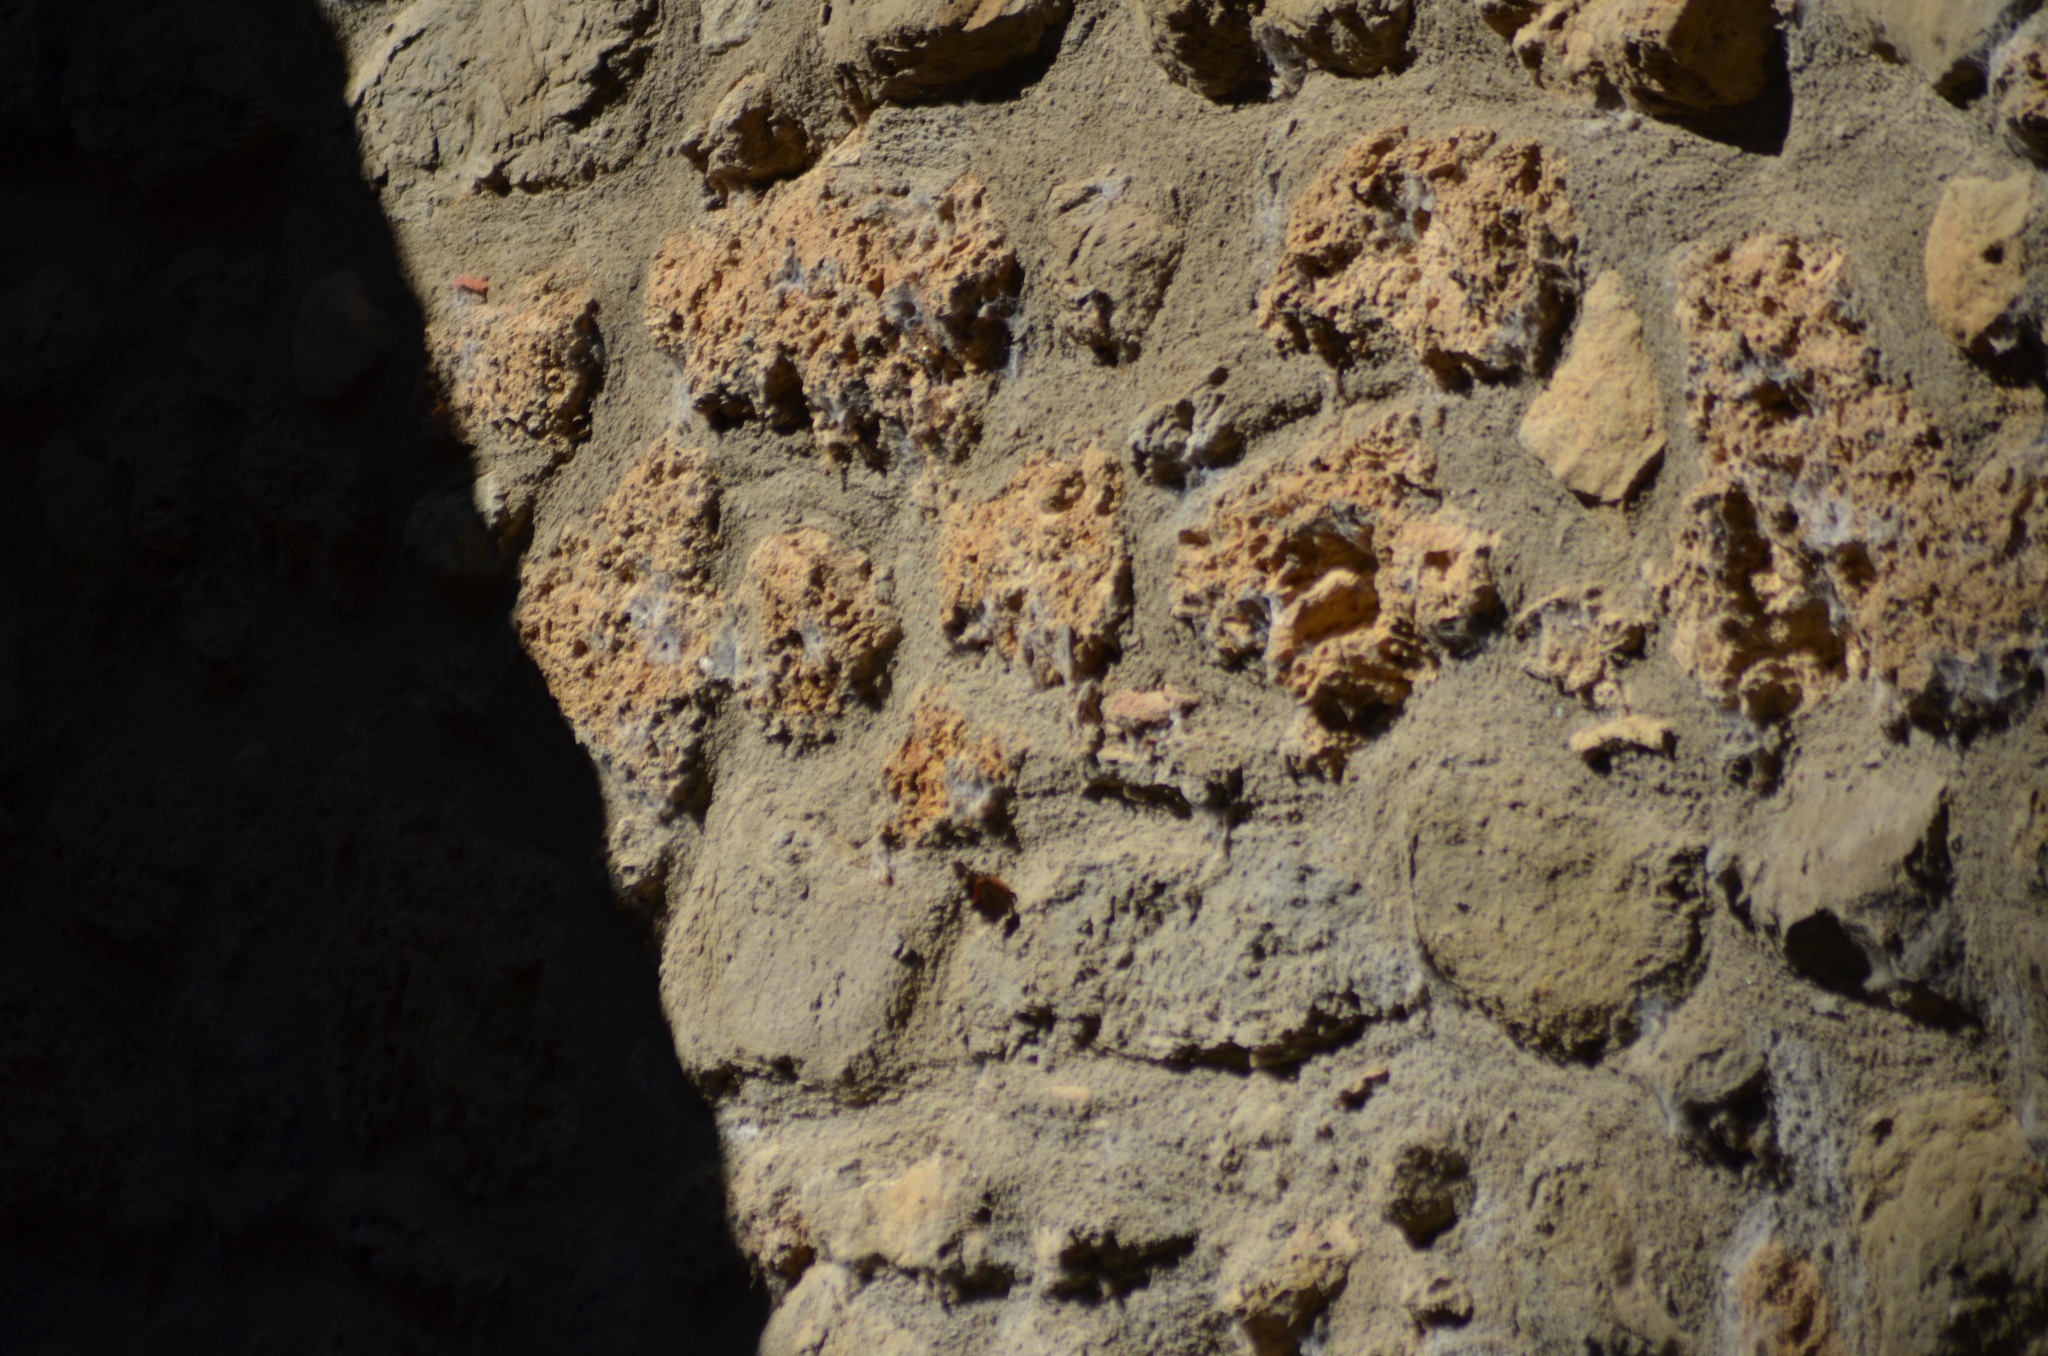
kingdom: Animalia
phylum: Arthropoda
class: Insecta
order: Lepidoptera
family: Nymphalidae
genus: Vanessa
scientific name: Vanessa atalanta
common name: Red admiral
